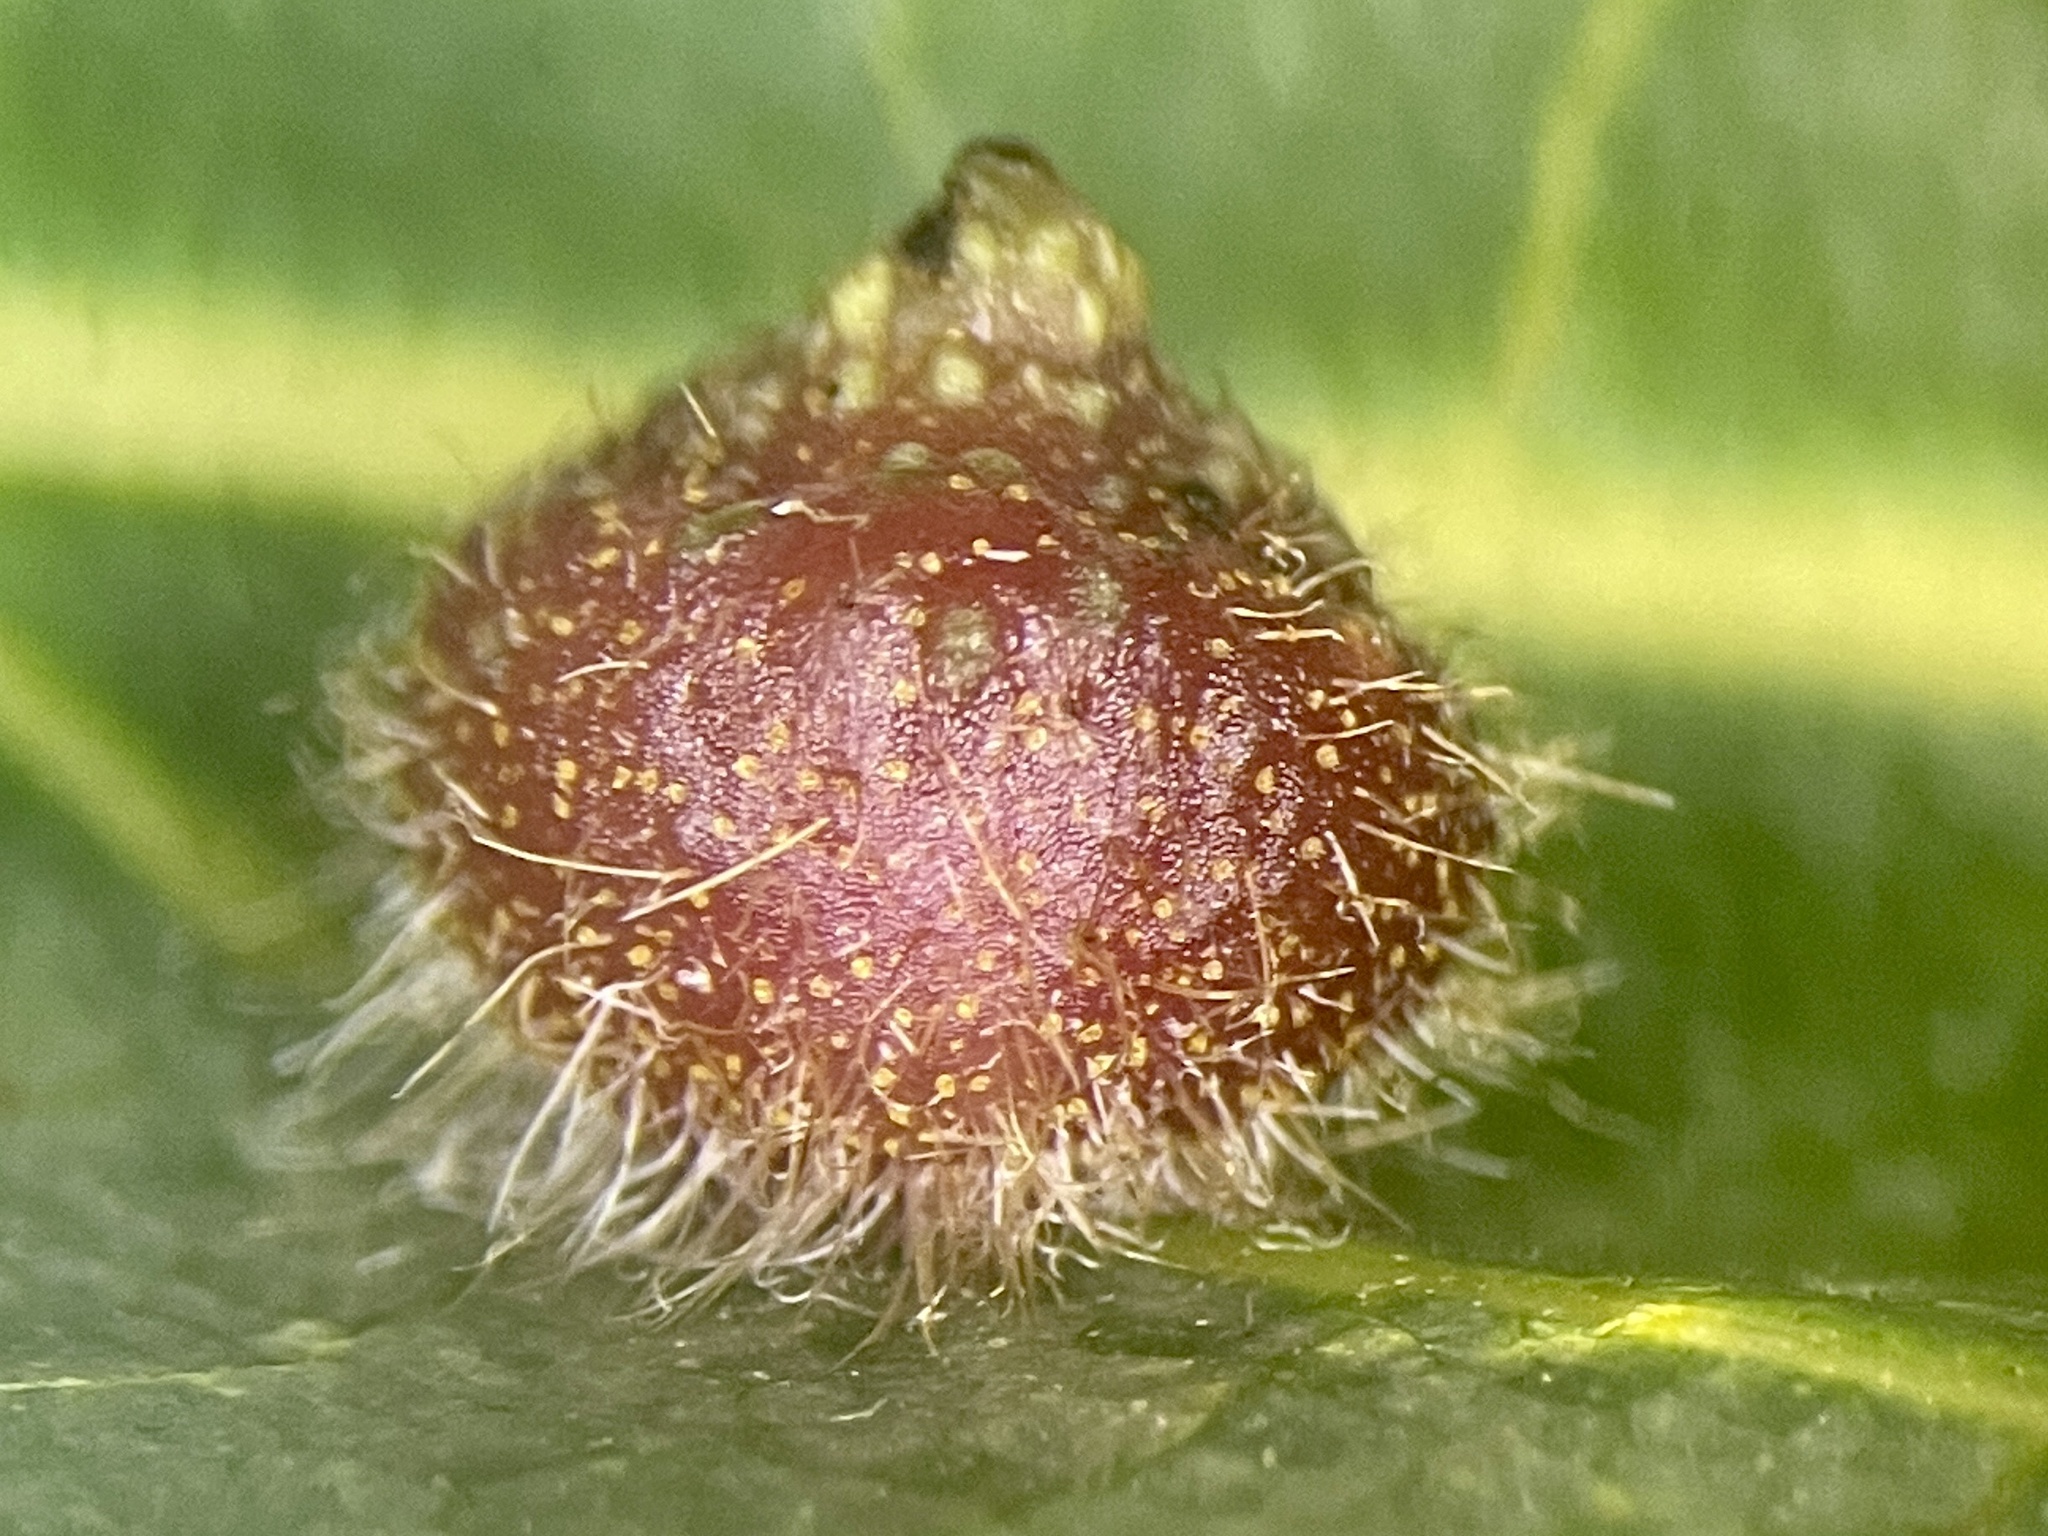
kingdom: Animalia
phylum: Arthropoda
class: Insecta
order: Diptera
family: Cecidomyiidae
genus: Caryomyia
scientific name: Caryomyia turbanella
